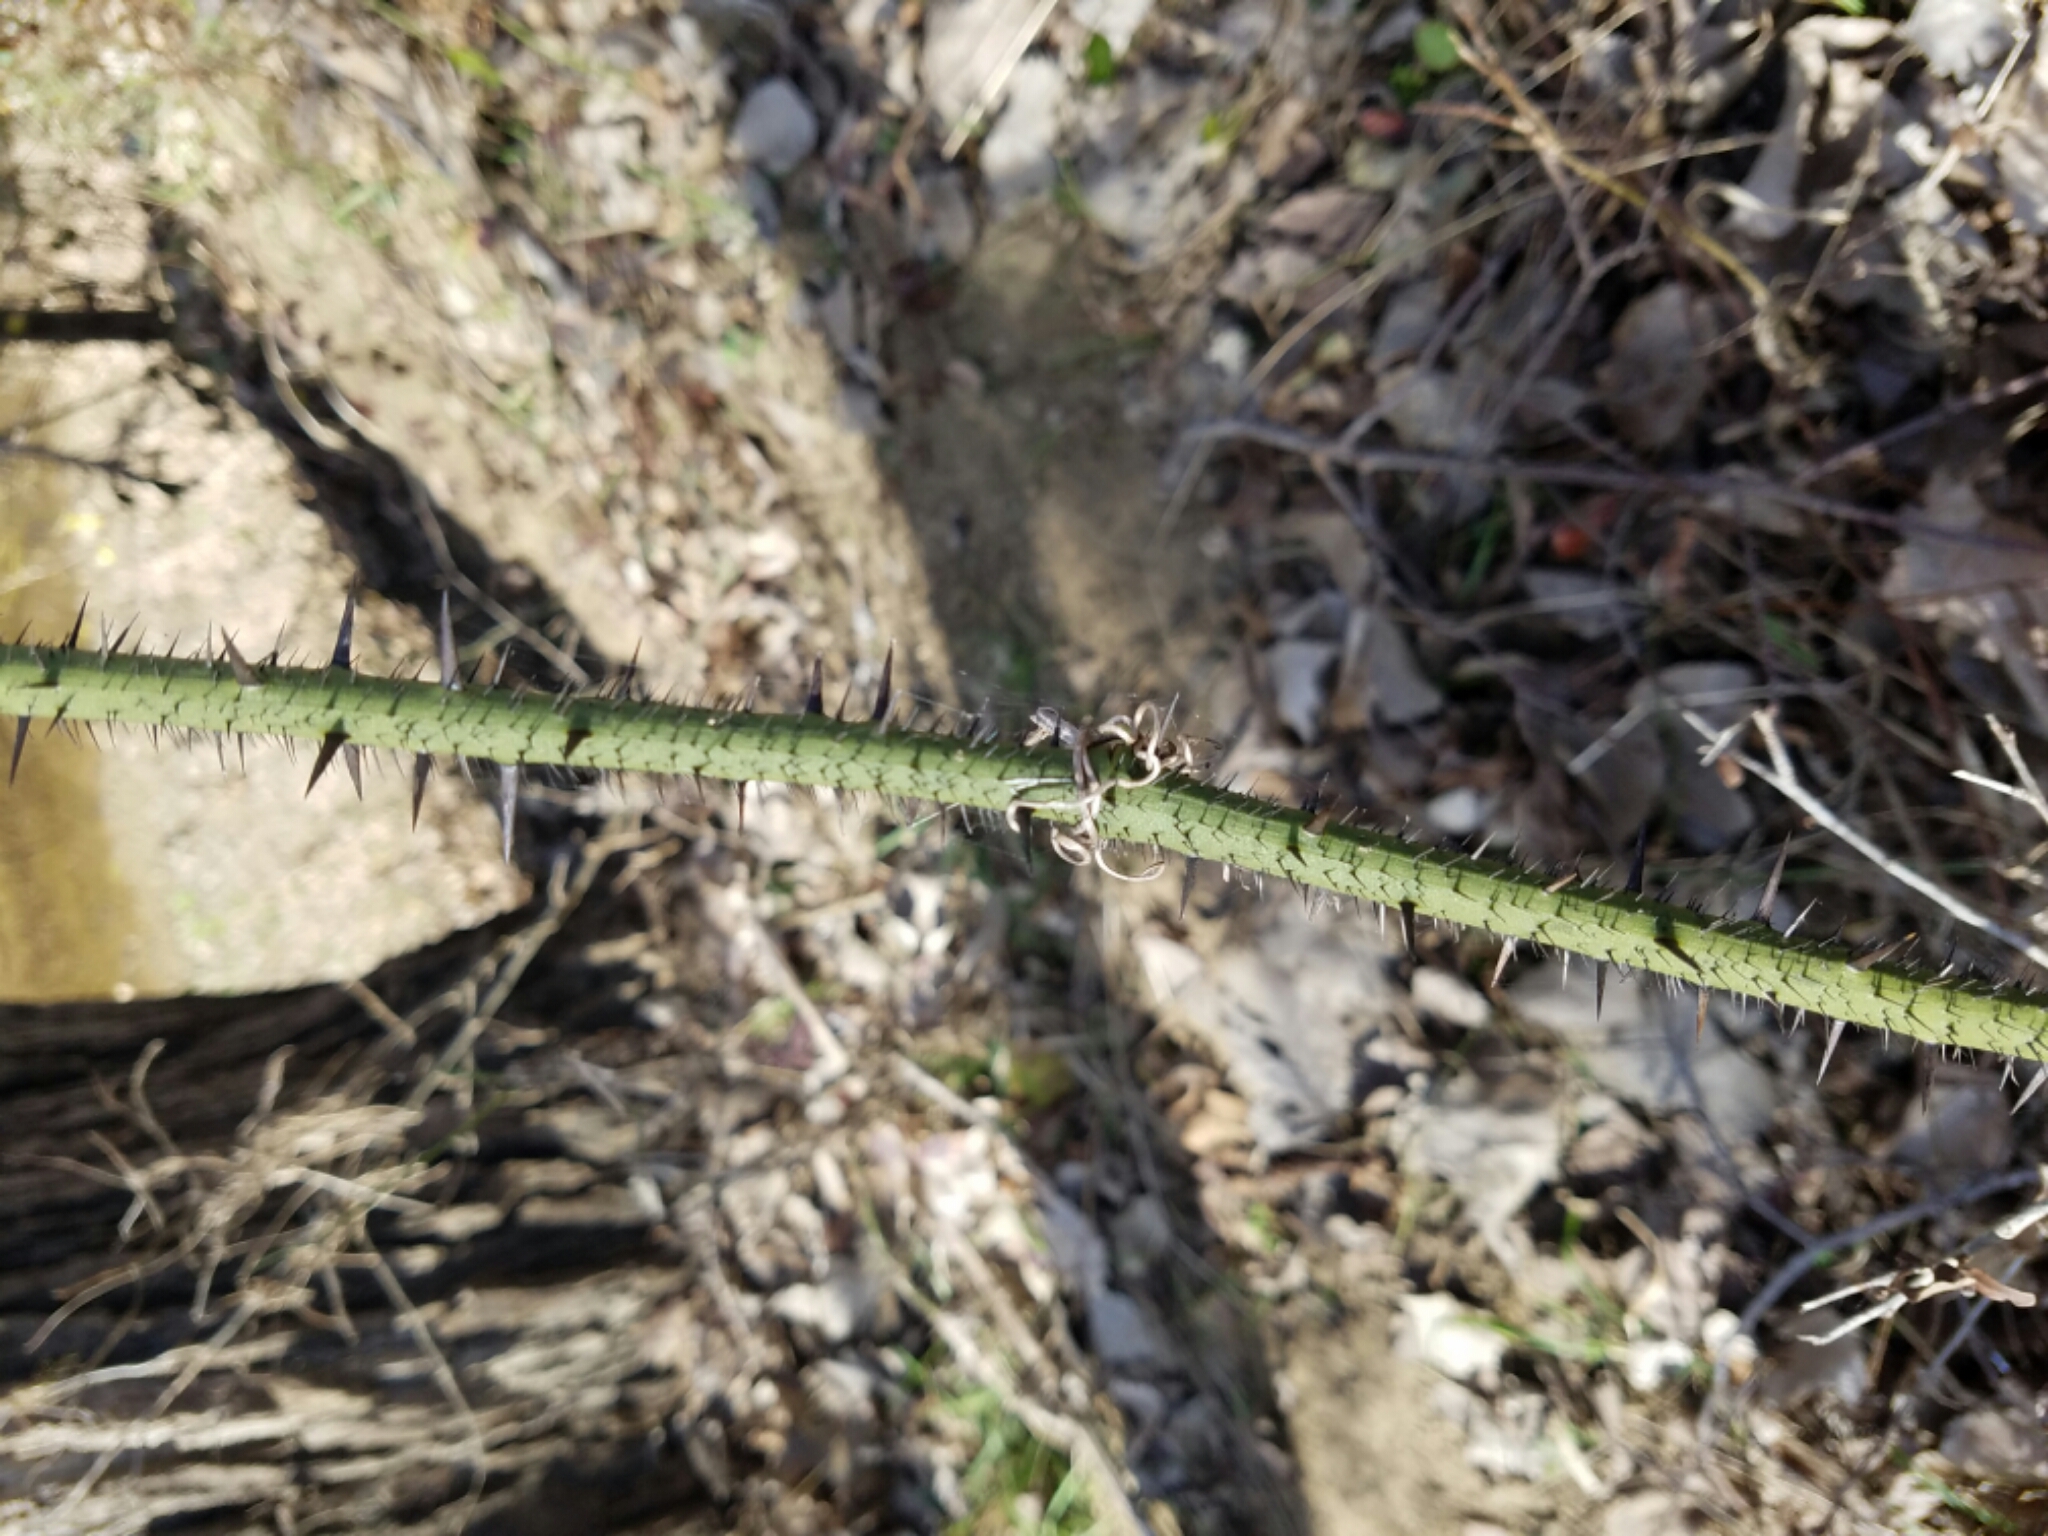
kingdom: Plantae
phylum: Tracheophyta
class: Liliopsida
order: Liliales
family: Smilacaceae
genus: Smilax
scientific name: Smilax tamnoides
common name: Hellfetter
